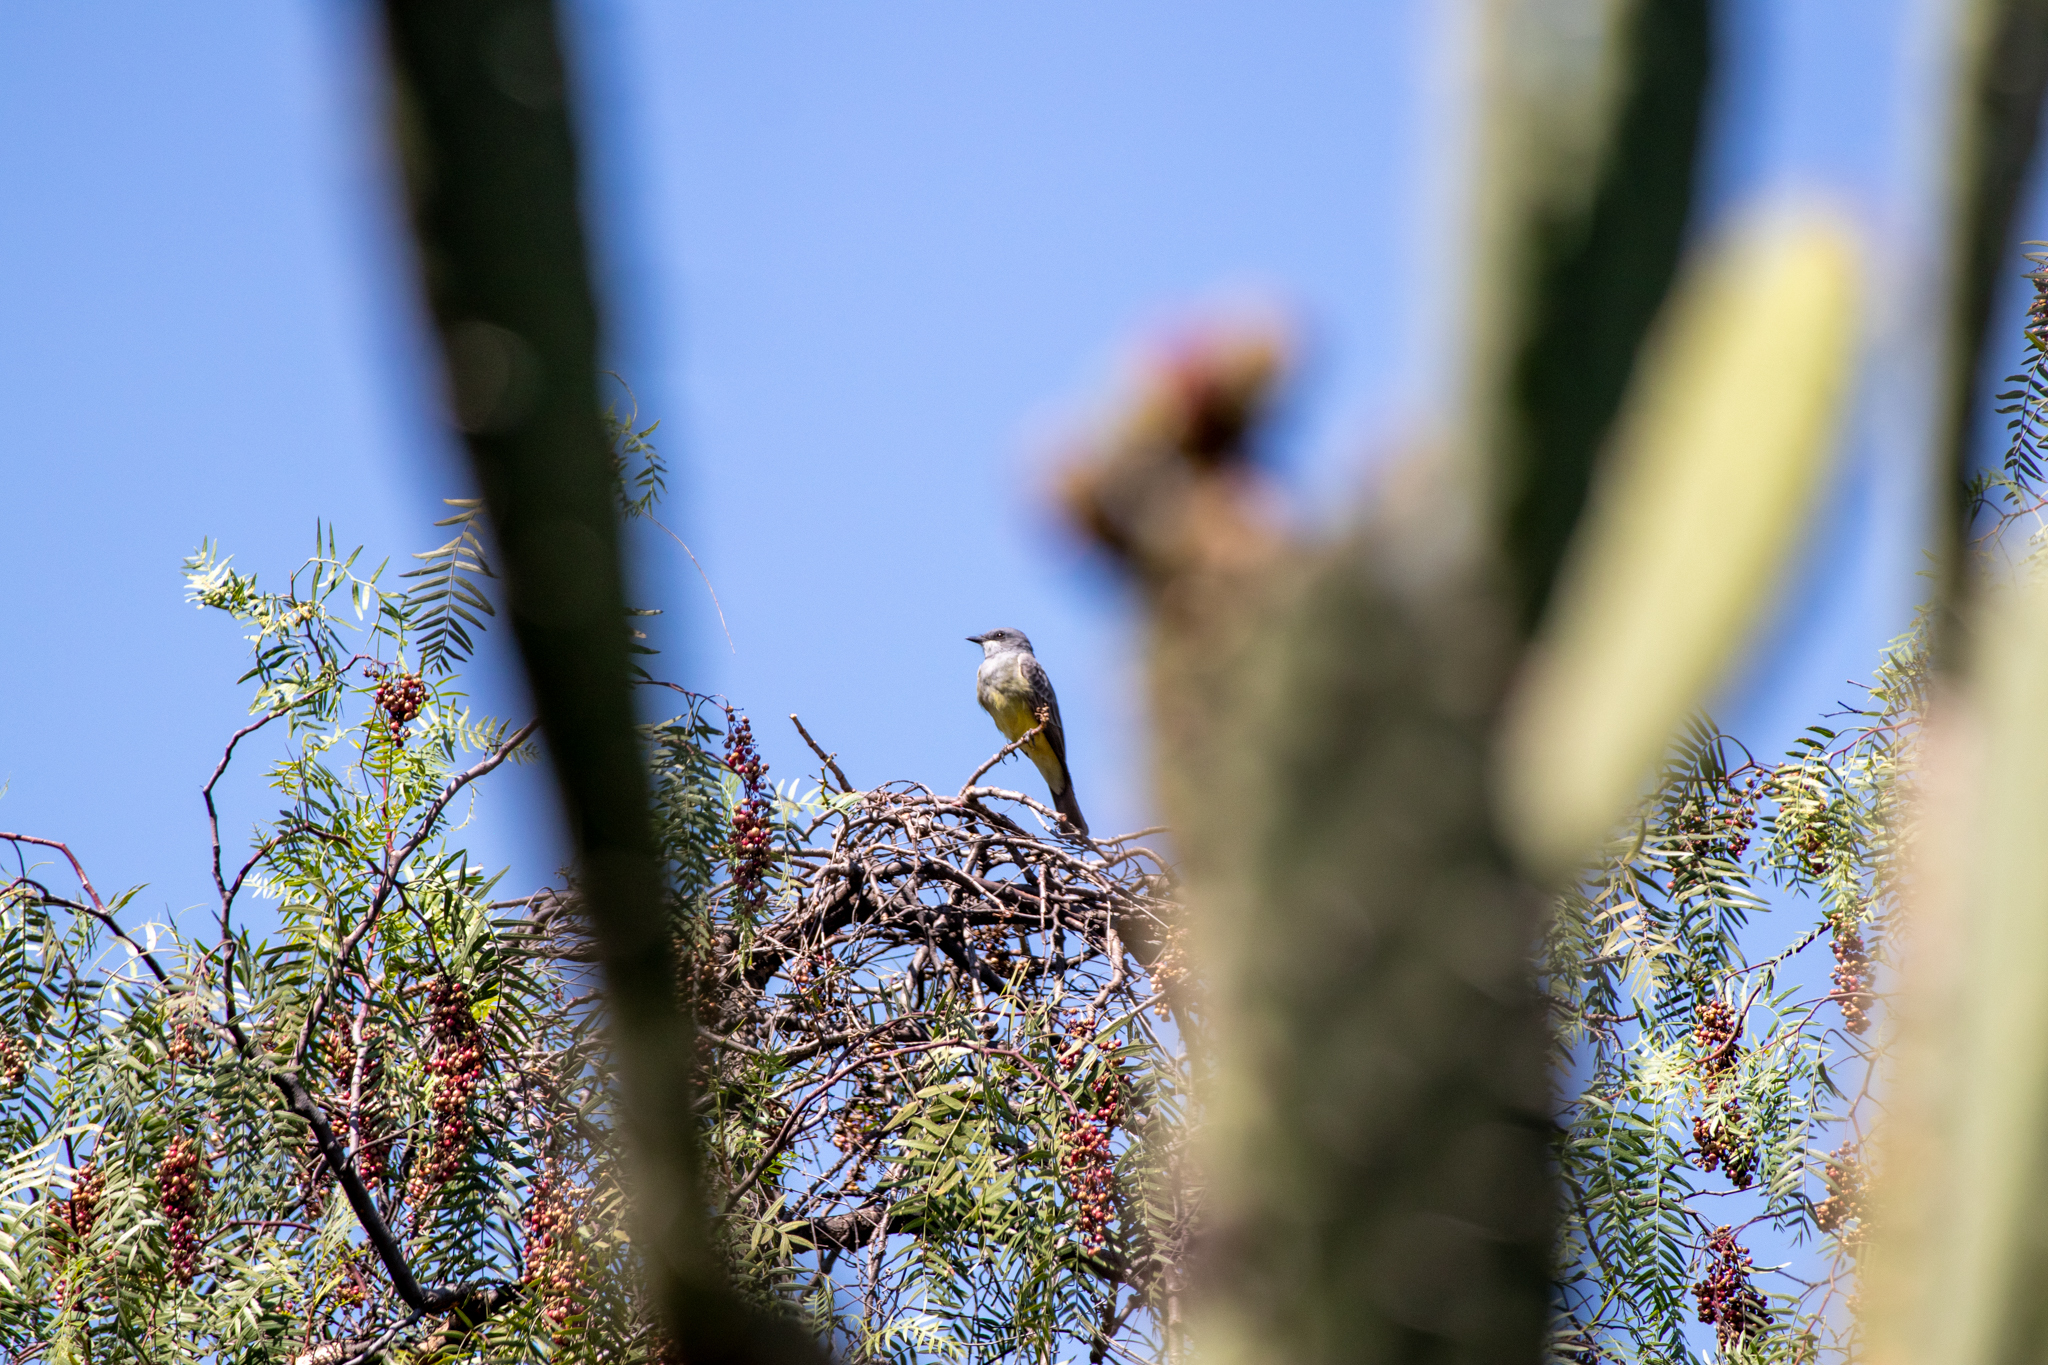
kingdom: Animalia
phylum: Chordata
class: Aves
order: Passeriformes
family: Tyrannidae
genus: Tyrannus
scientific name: Tyrannus vociferans
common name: Cassin's kingbird
